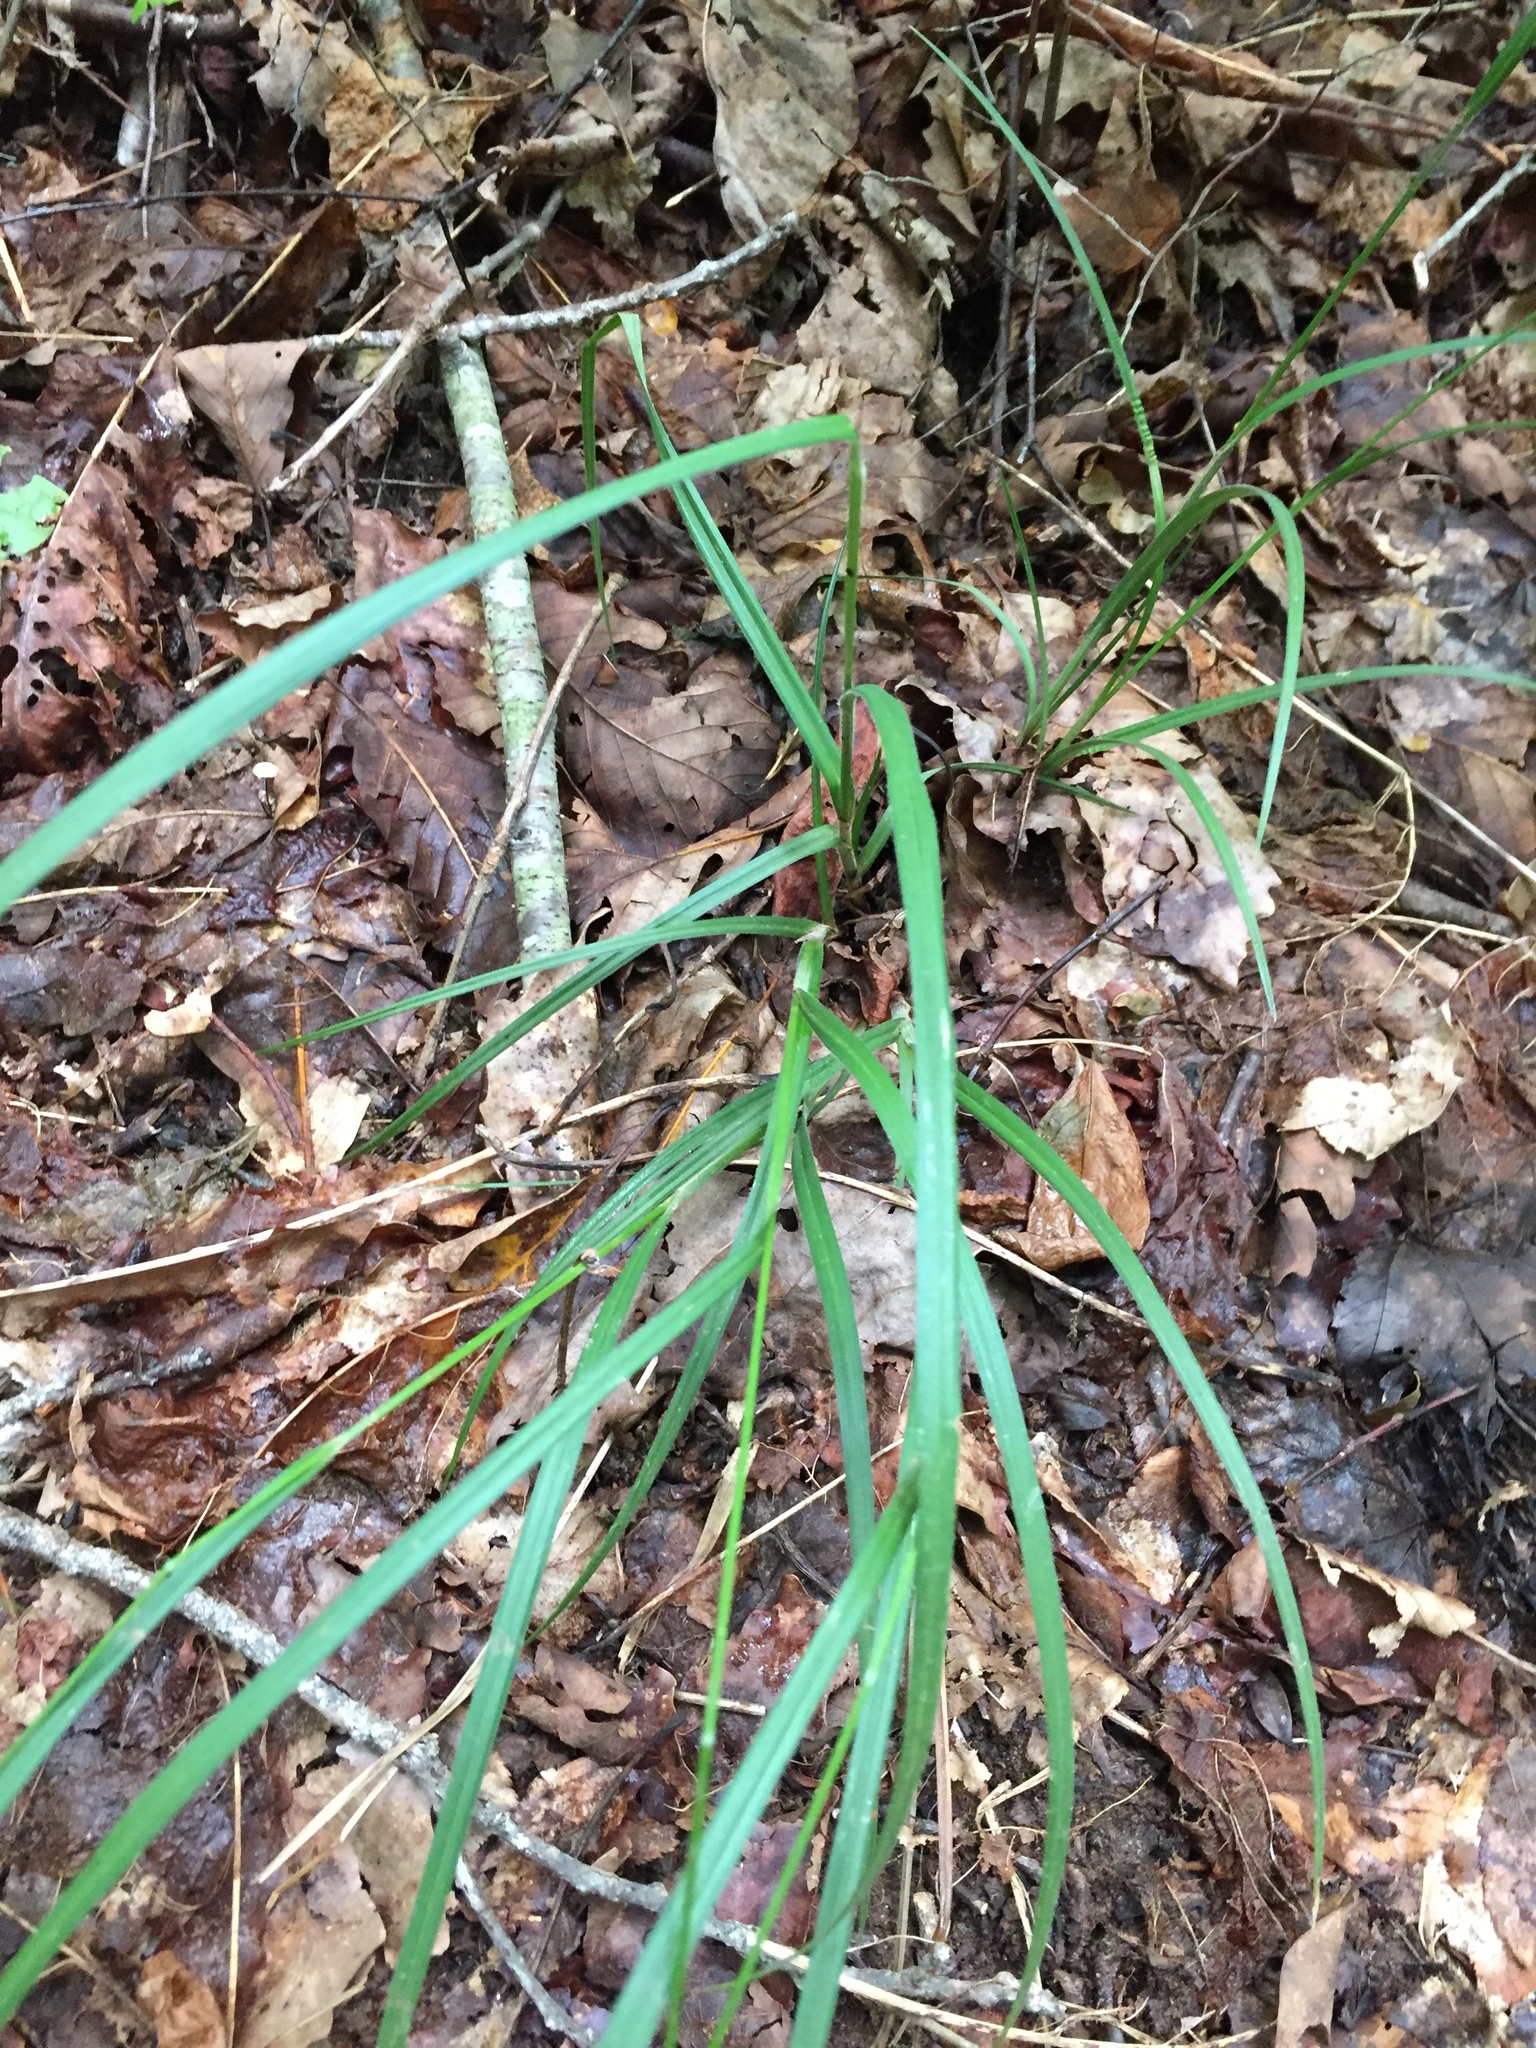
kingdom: Plantae
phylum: Tracheophyta
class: Liliopsida
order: Poales
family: Cyperaceae
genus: Carex
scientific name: Carex virescens
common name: Ribbed sedge
